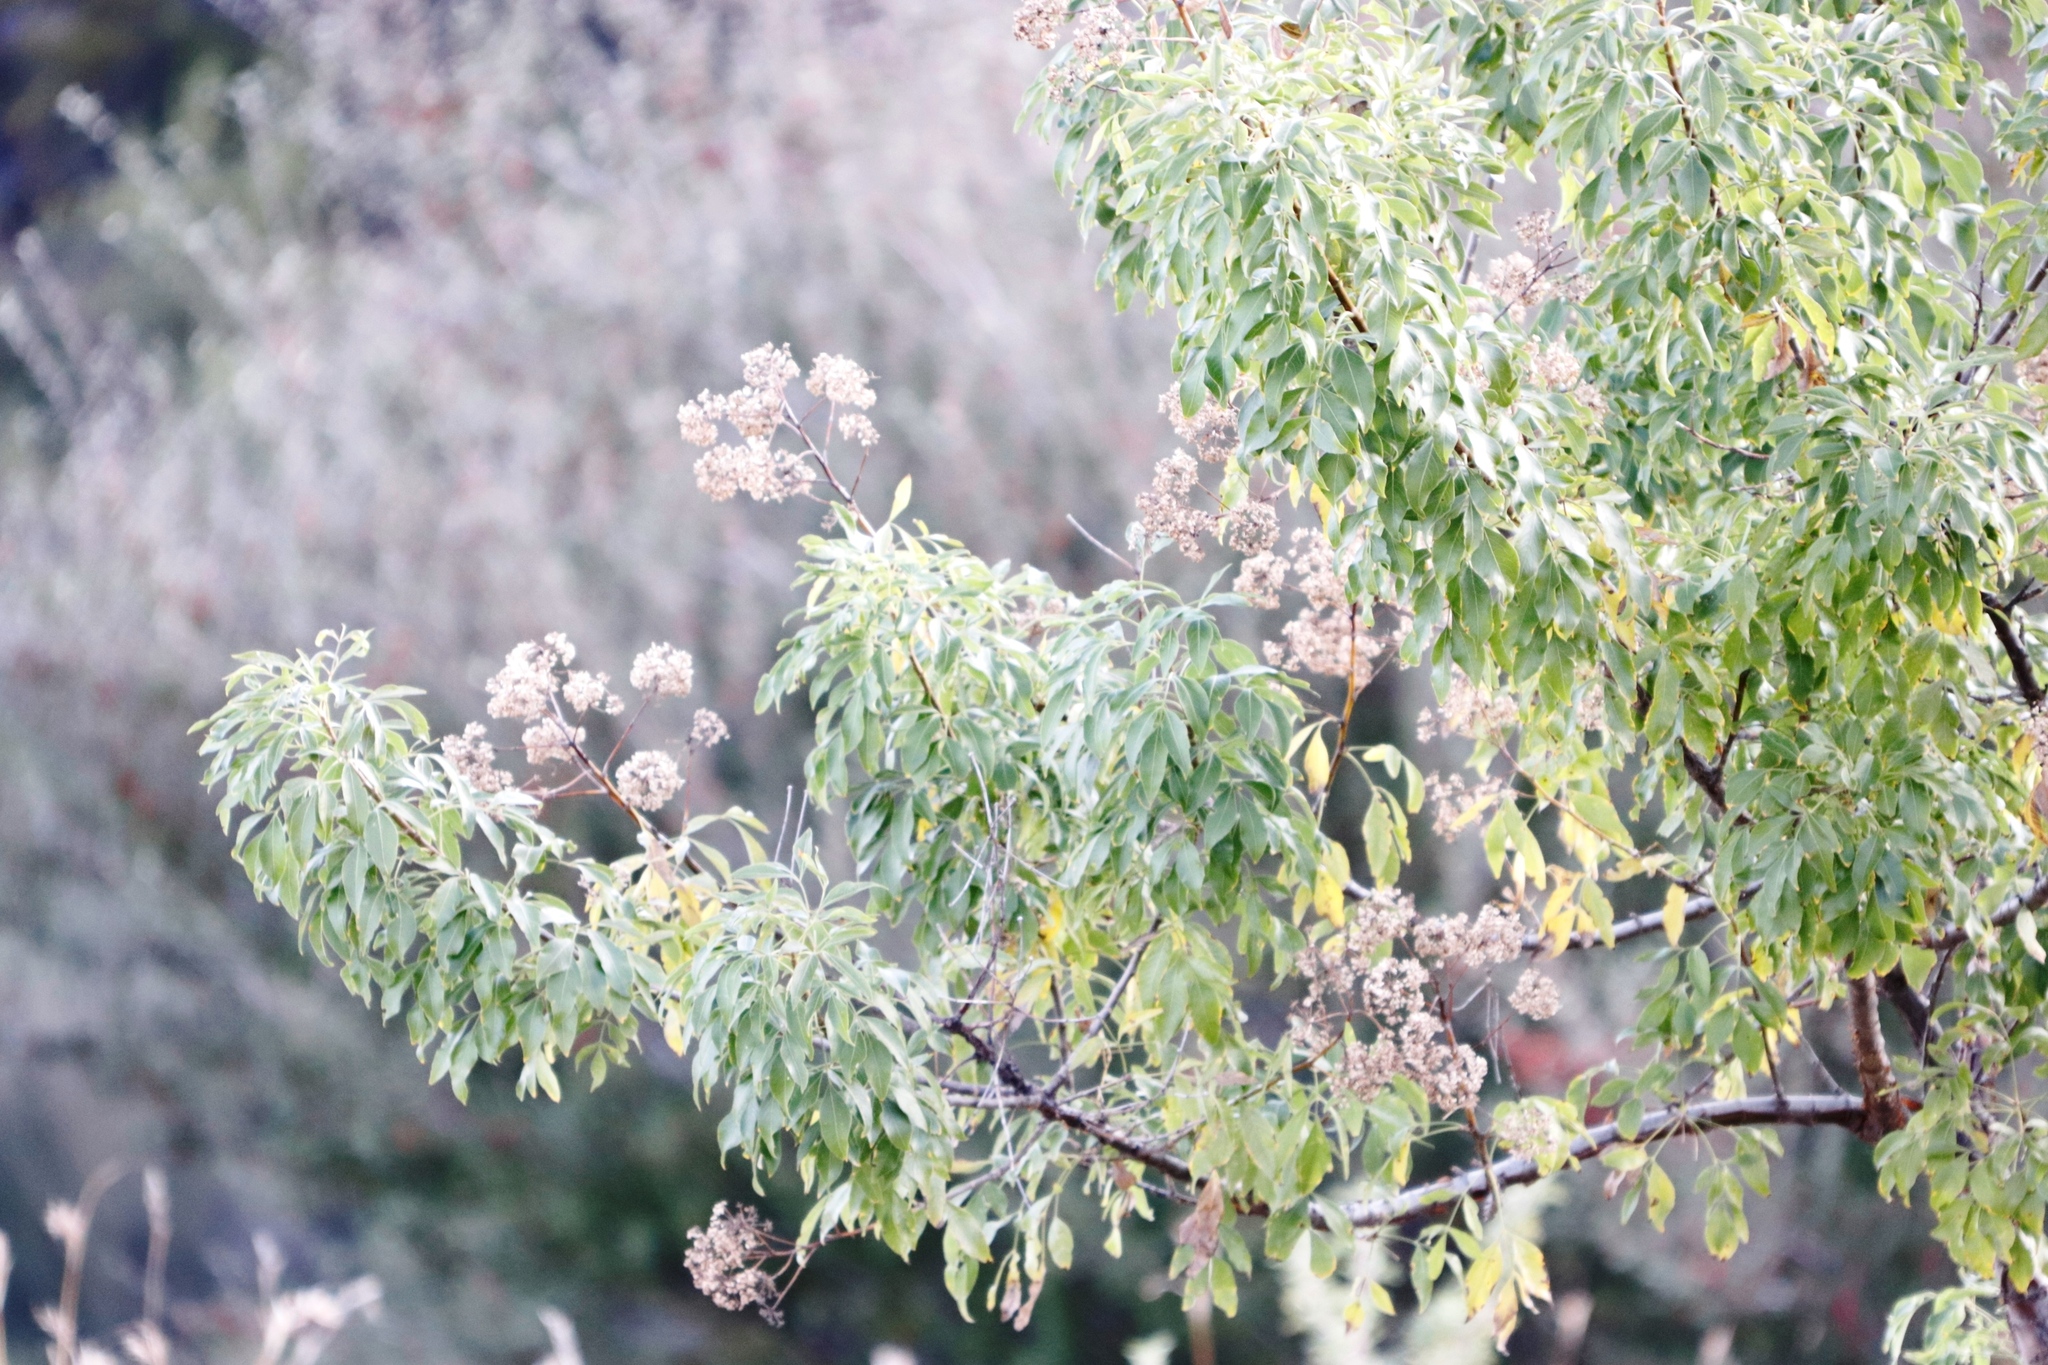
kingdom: Plantae
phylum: Tracheophyta
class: Magnoliopsida
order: Apiales
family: Apiaceae
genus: Heteromorpha
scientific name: Heteromorpha arborescens
